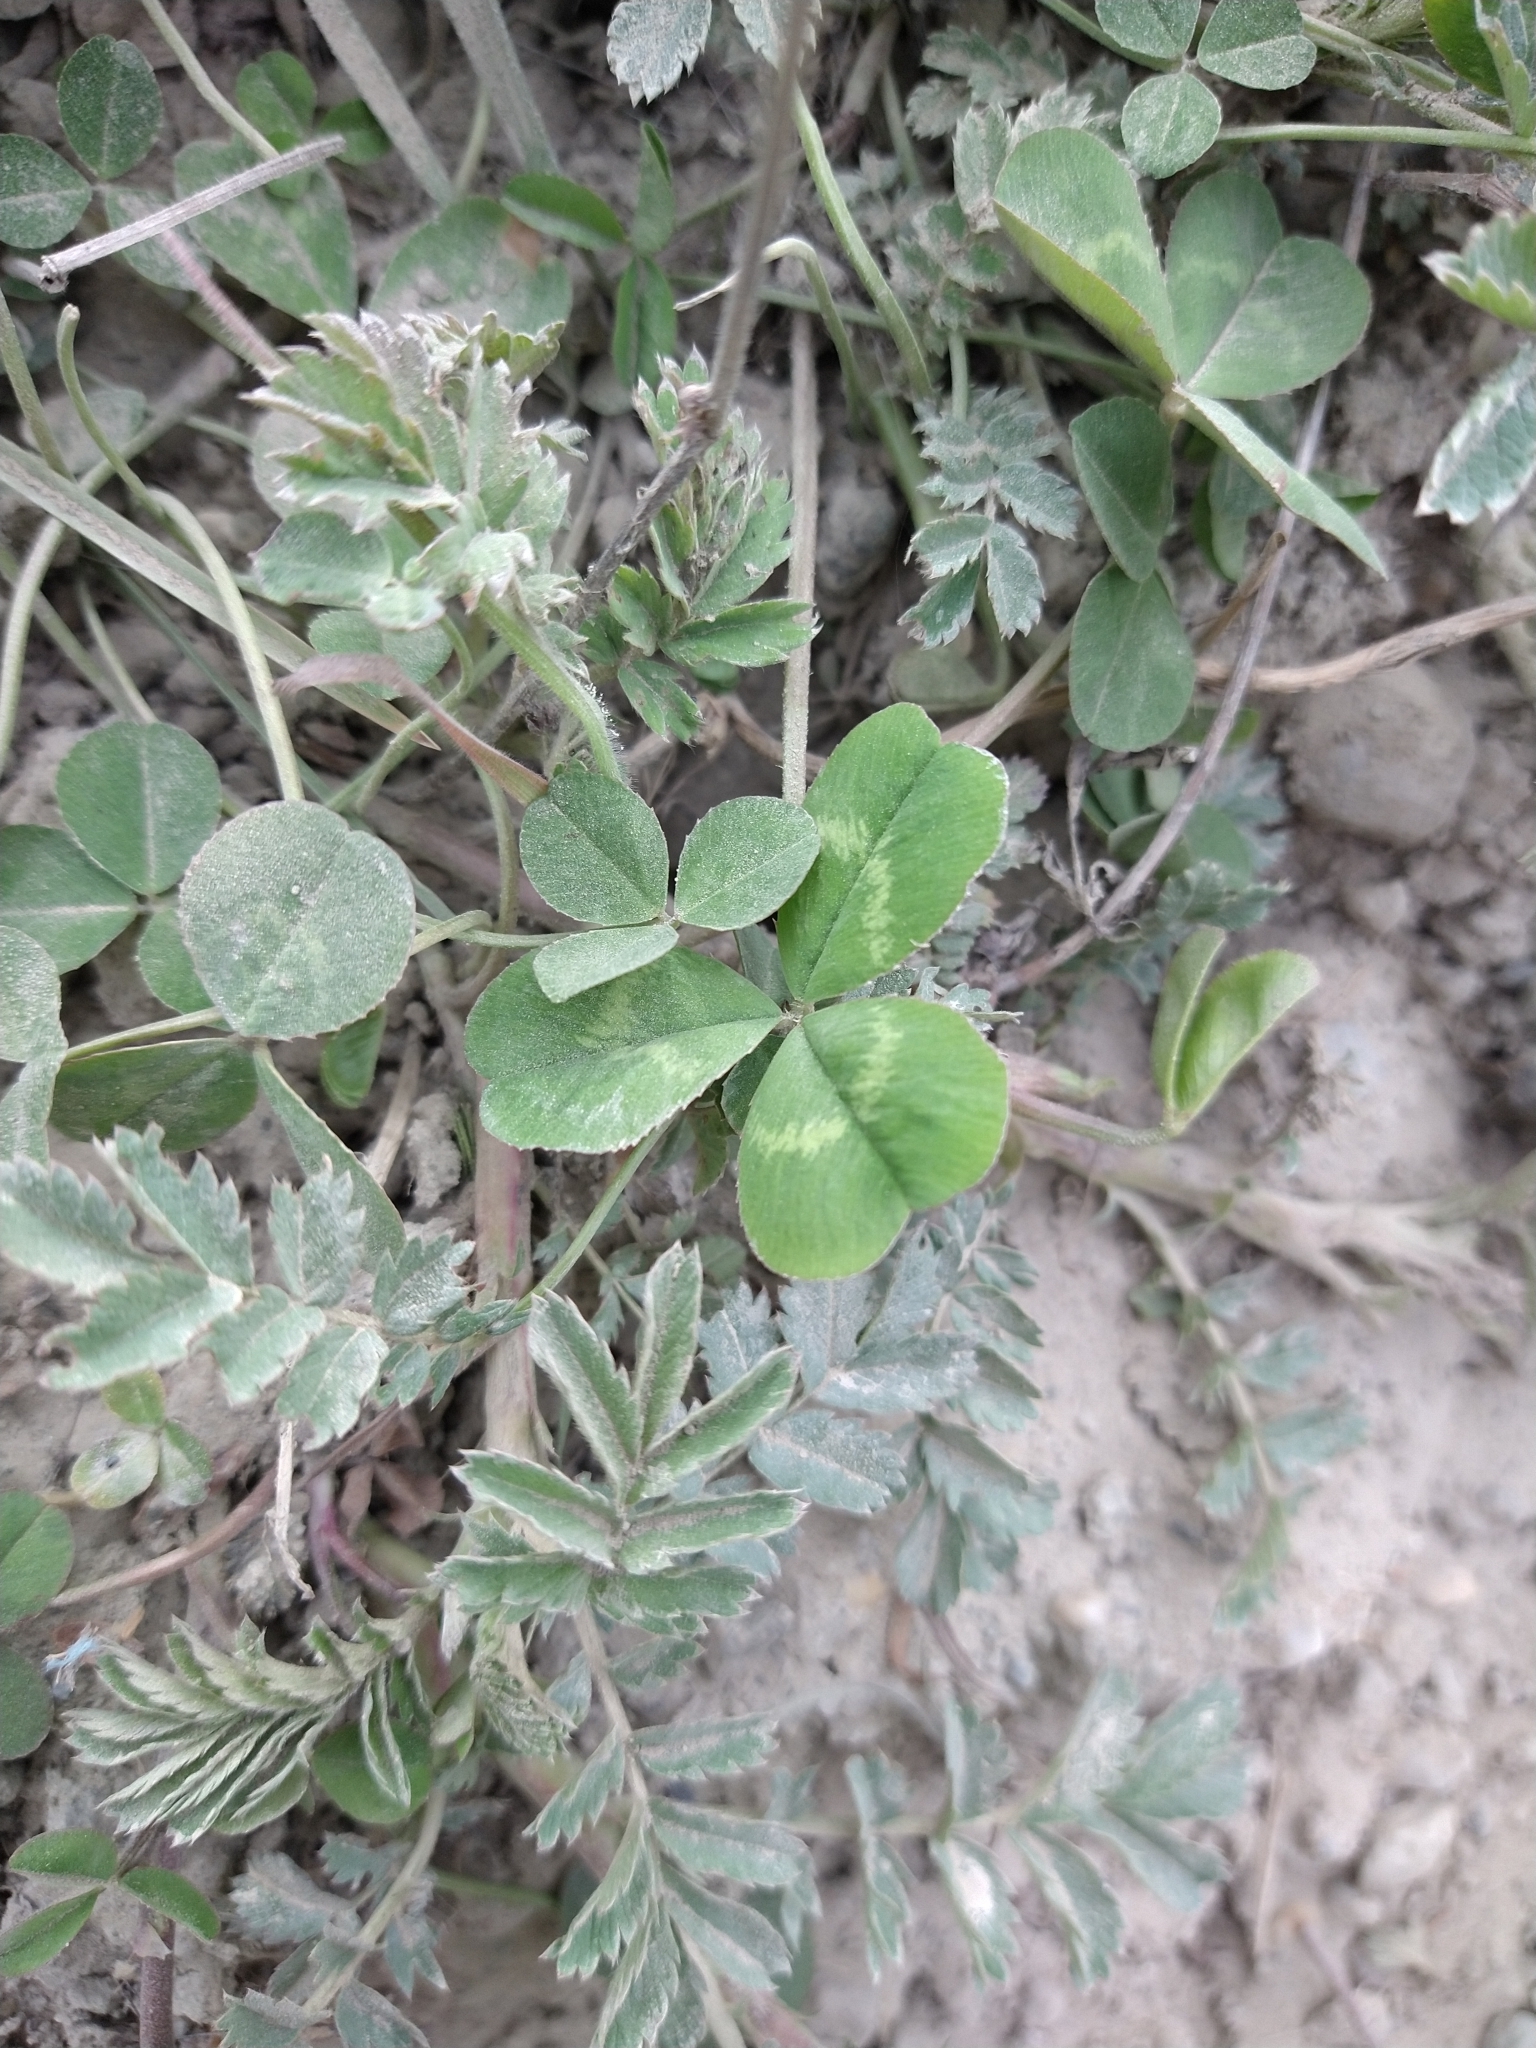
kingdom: Plantae
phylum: Tracheophyta
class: Magnoliopsida
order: Fabales
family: Fabaceae
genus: Trifolium
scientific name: Trifolium repens
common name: White clover
